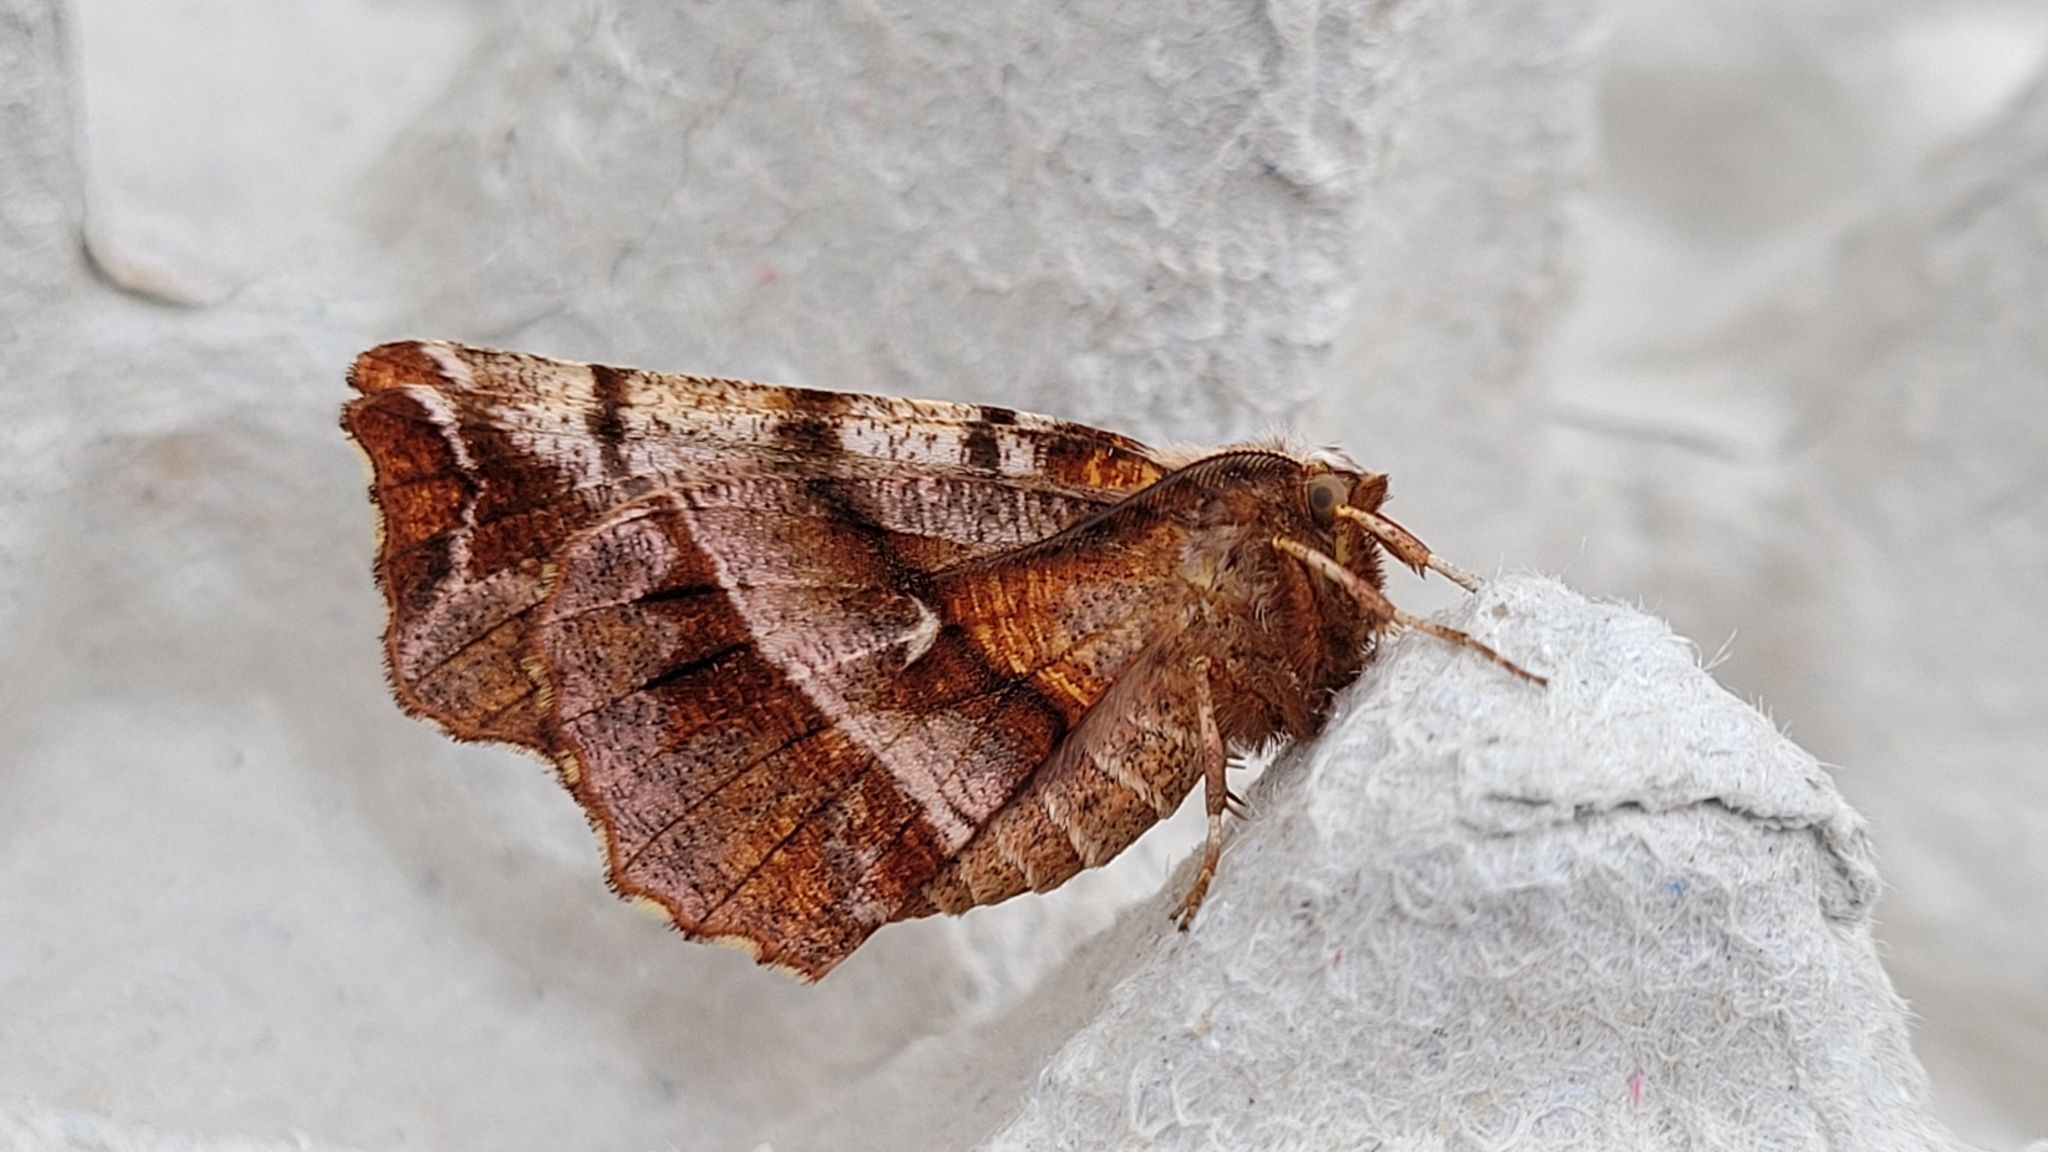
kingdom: Animalia
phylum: Arthropoda
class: Insecta
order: Lepidoptera
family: Geometridae
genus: Selenia
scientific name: Selenia dentaria
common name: Early thorn
